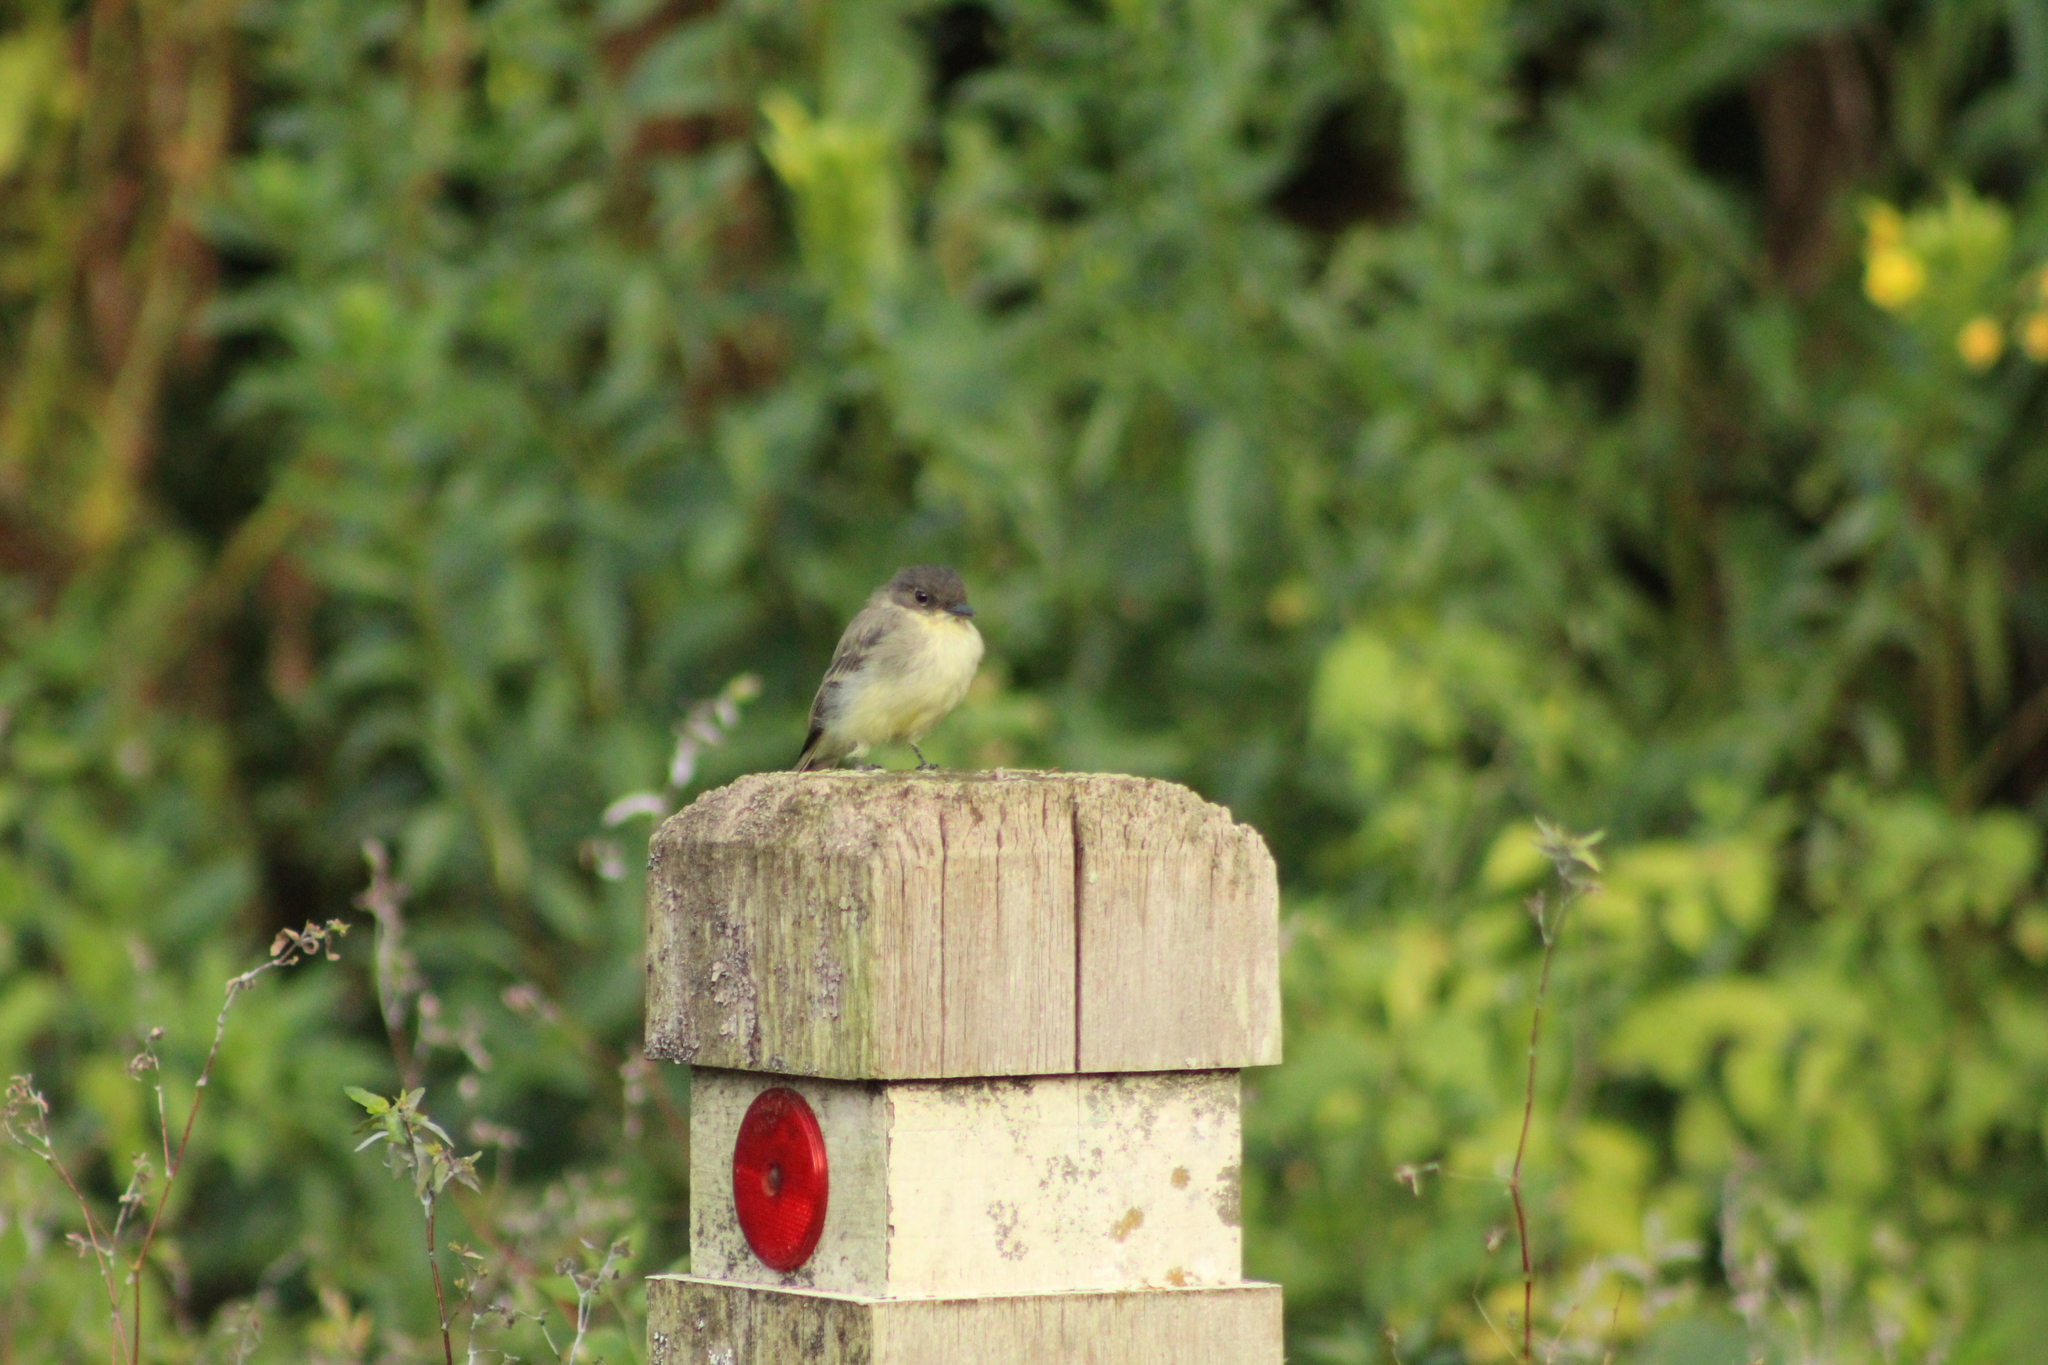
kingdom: Animalia
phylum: Chordata
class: Aves
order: Passeriformes
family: Tyrannidae
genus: Sayornis
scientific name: Sayornis phoebe
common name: Eastern phoebe
